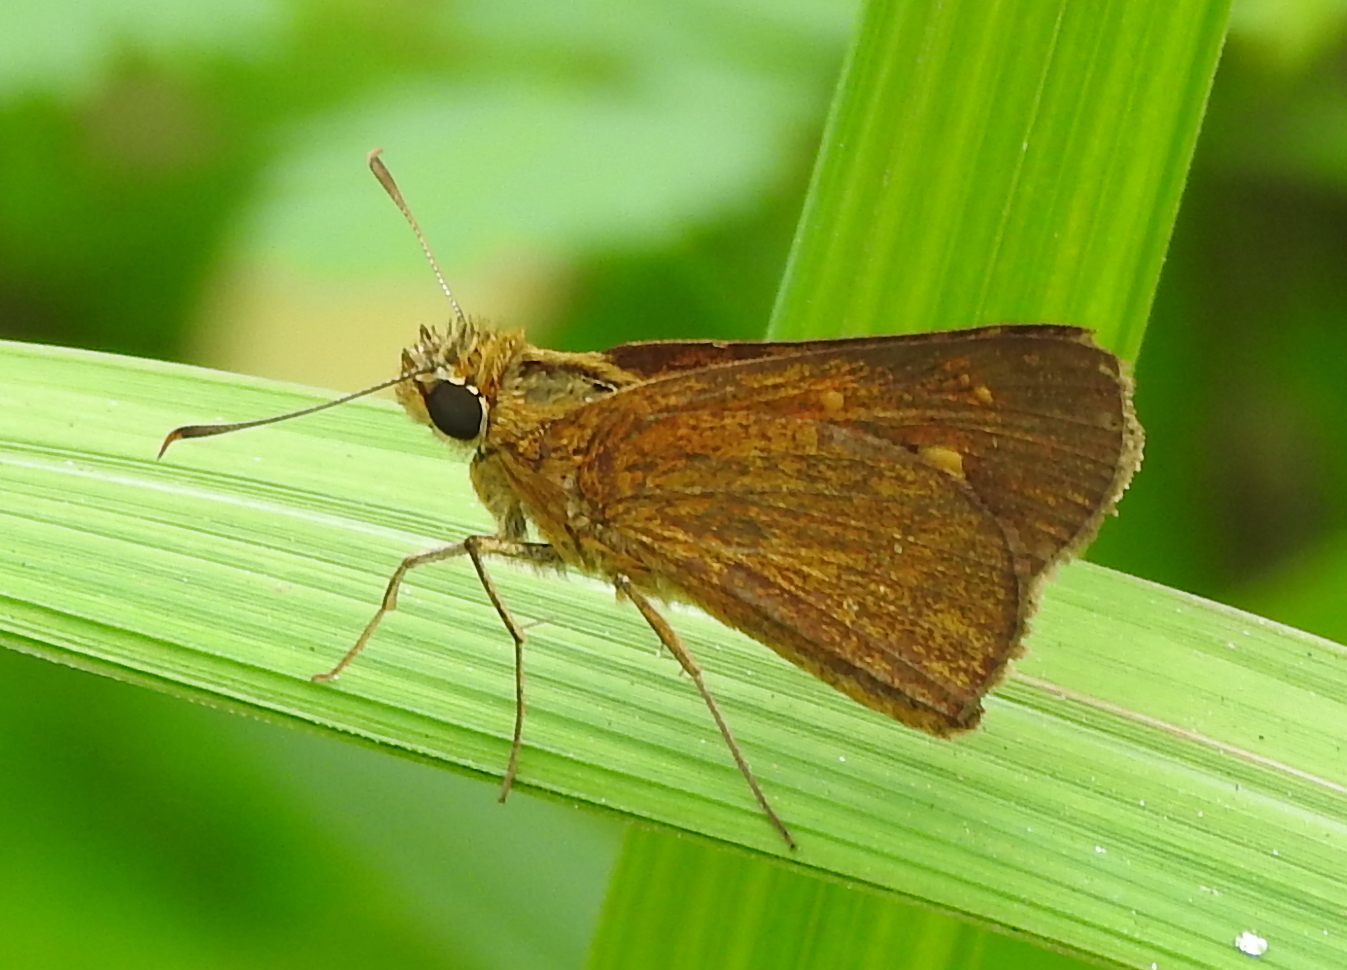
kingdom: Animalia
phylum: Arthropoda
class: Insecta
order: Lepidoptera
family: Hesperiidae
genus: Polytremis
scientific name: Polytremis lubricans
